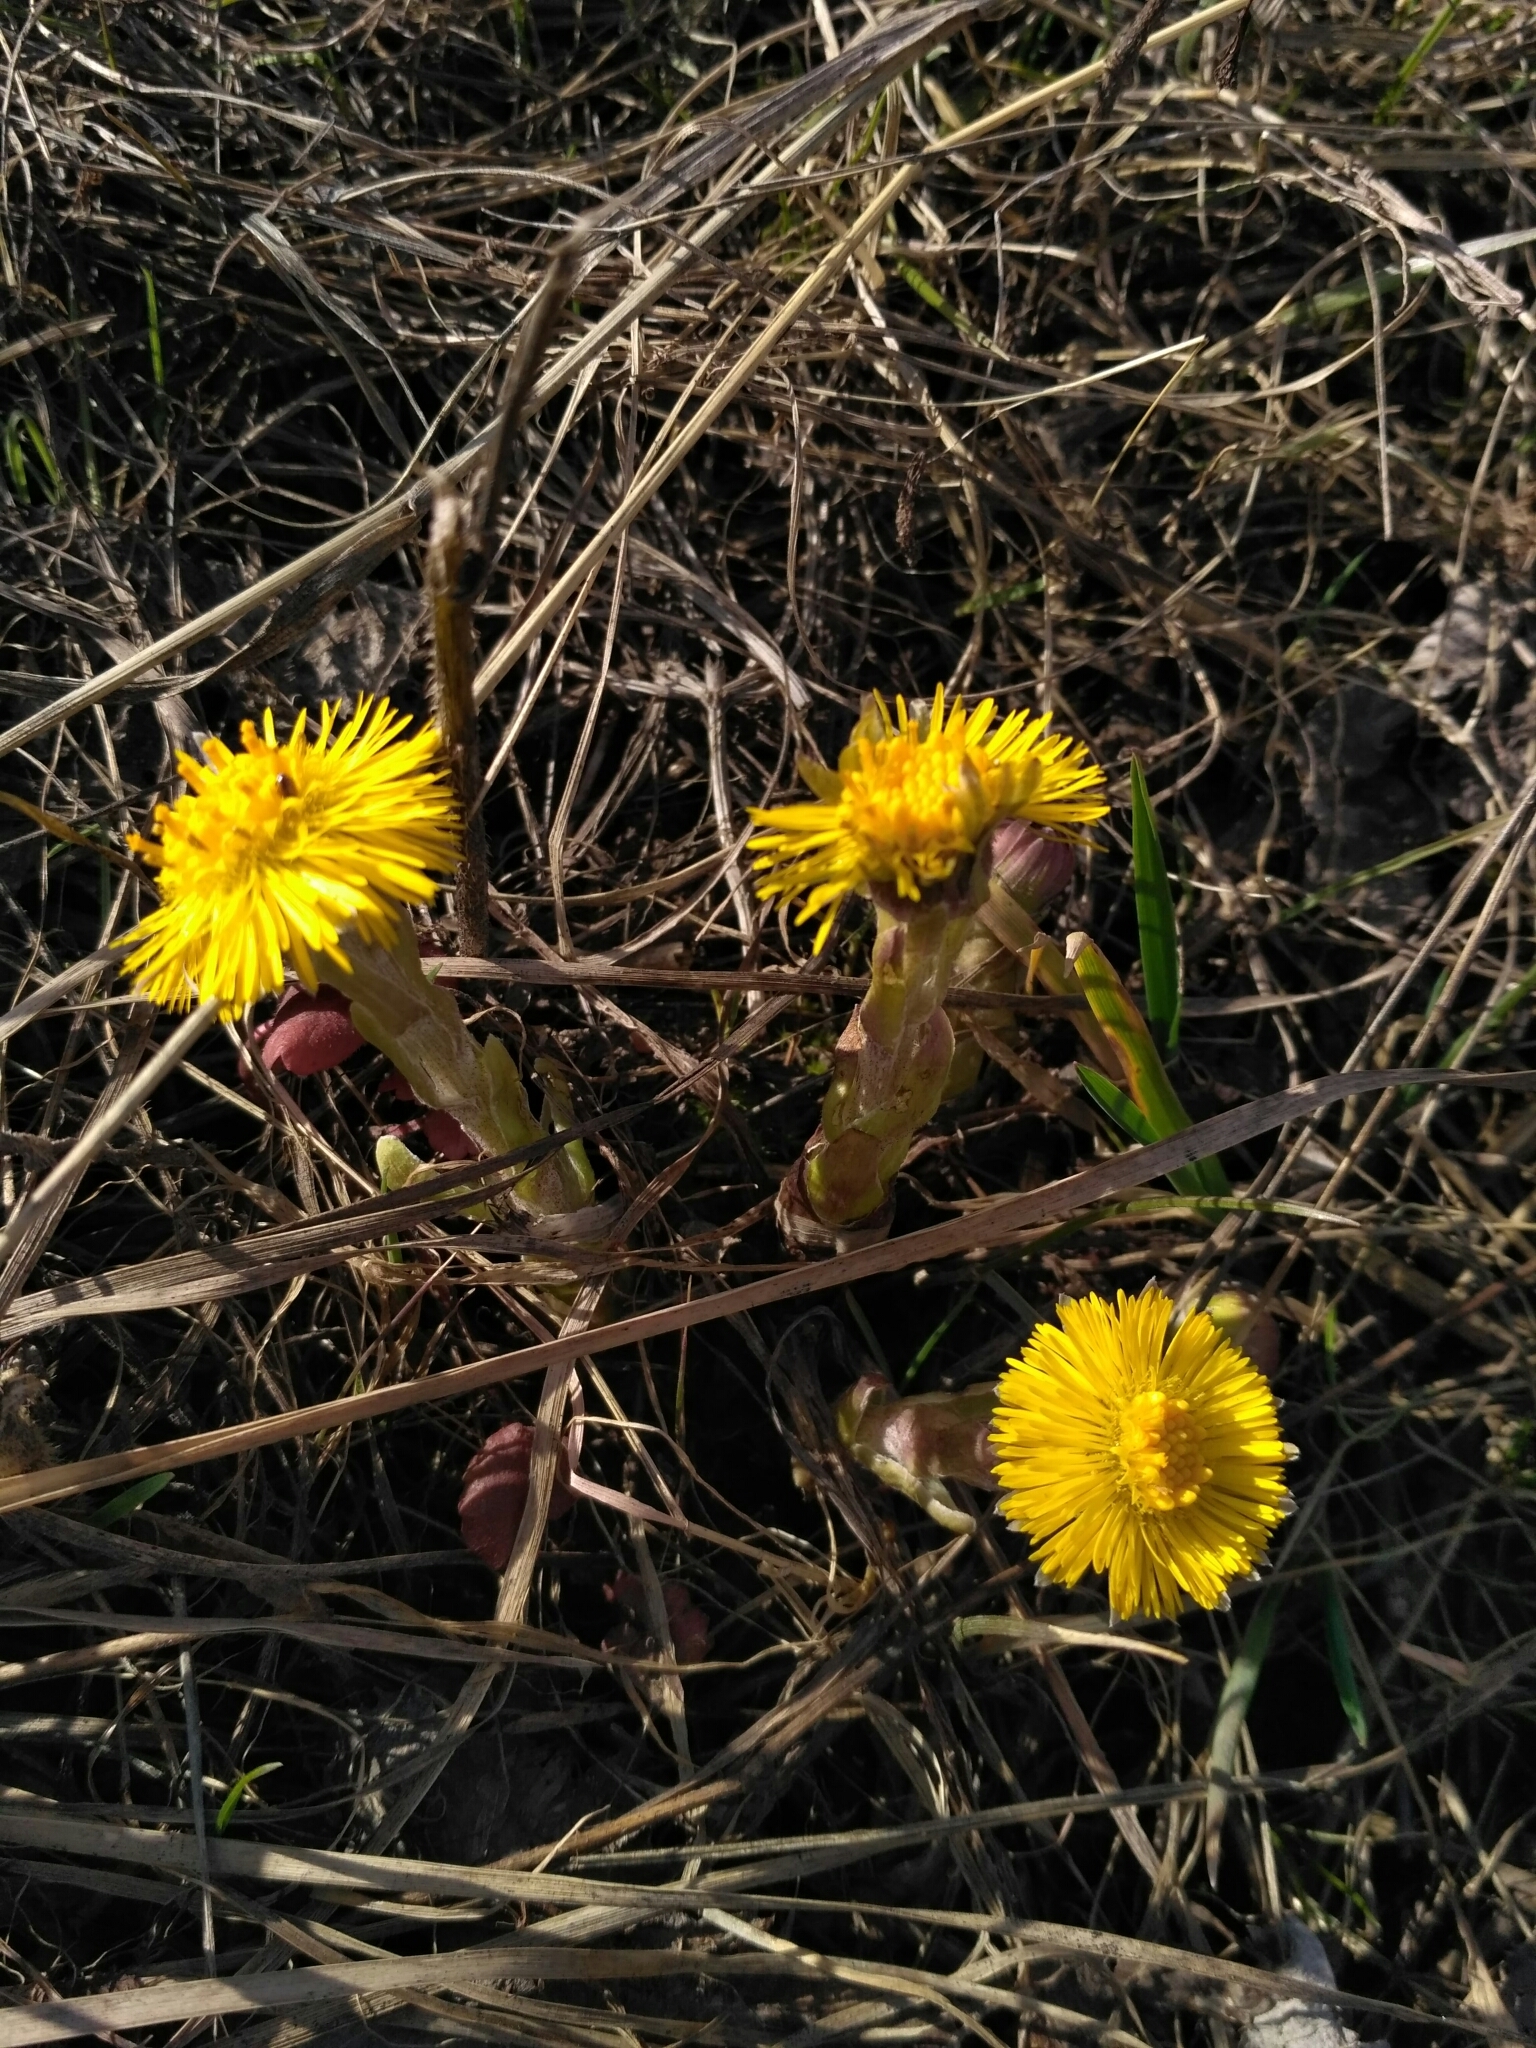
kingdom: Plantae
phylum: Tracheophyta
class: Magnoliopsida
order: Asterales
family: Asteraceae
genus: Tussilago
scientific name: Tussilago farfara
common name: Coltsfoot
